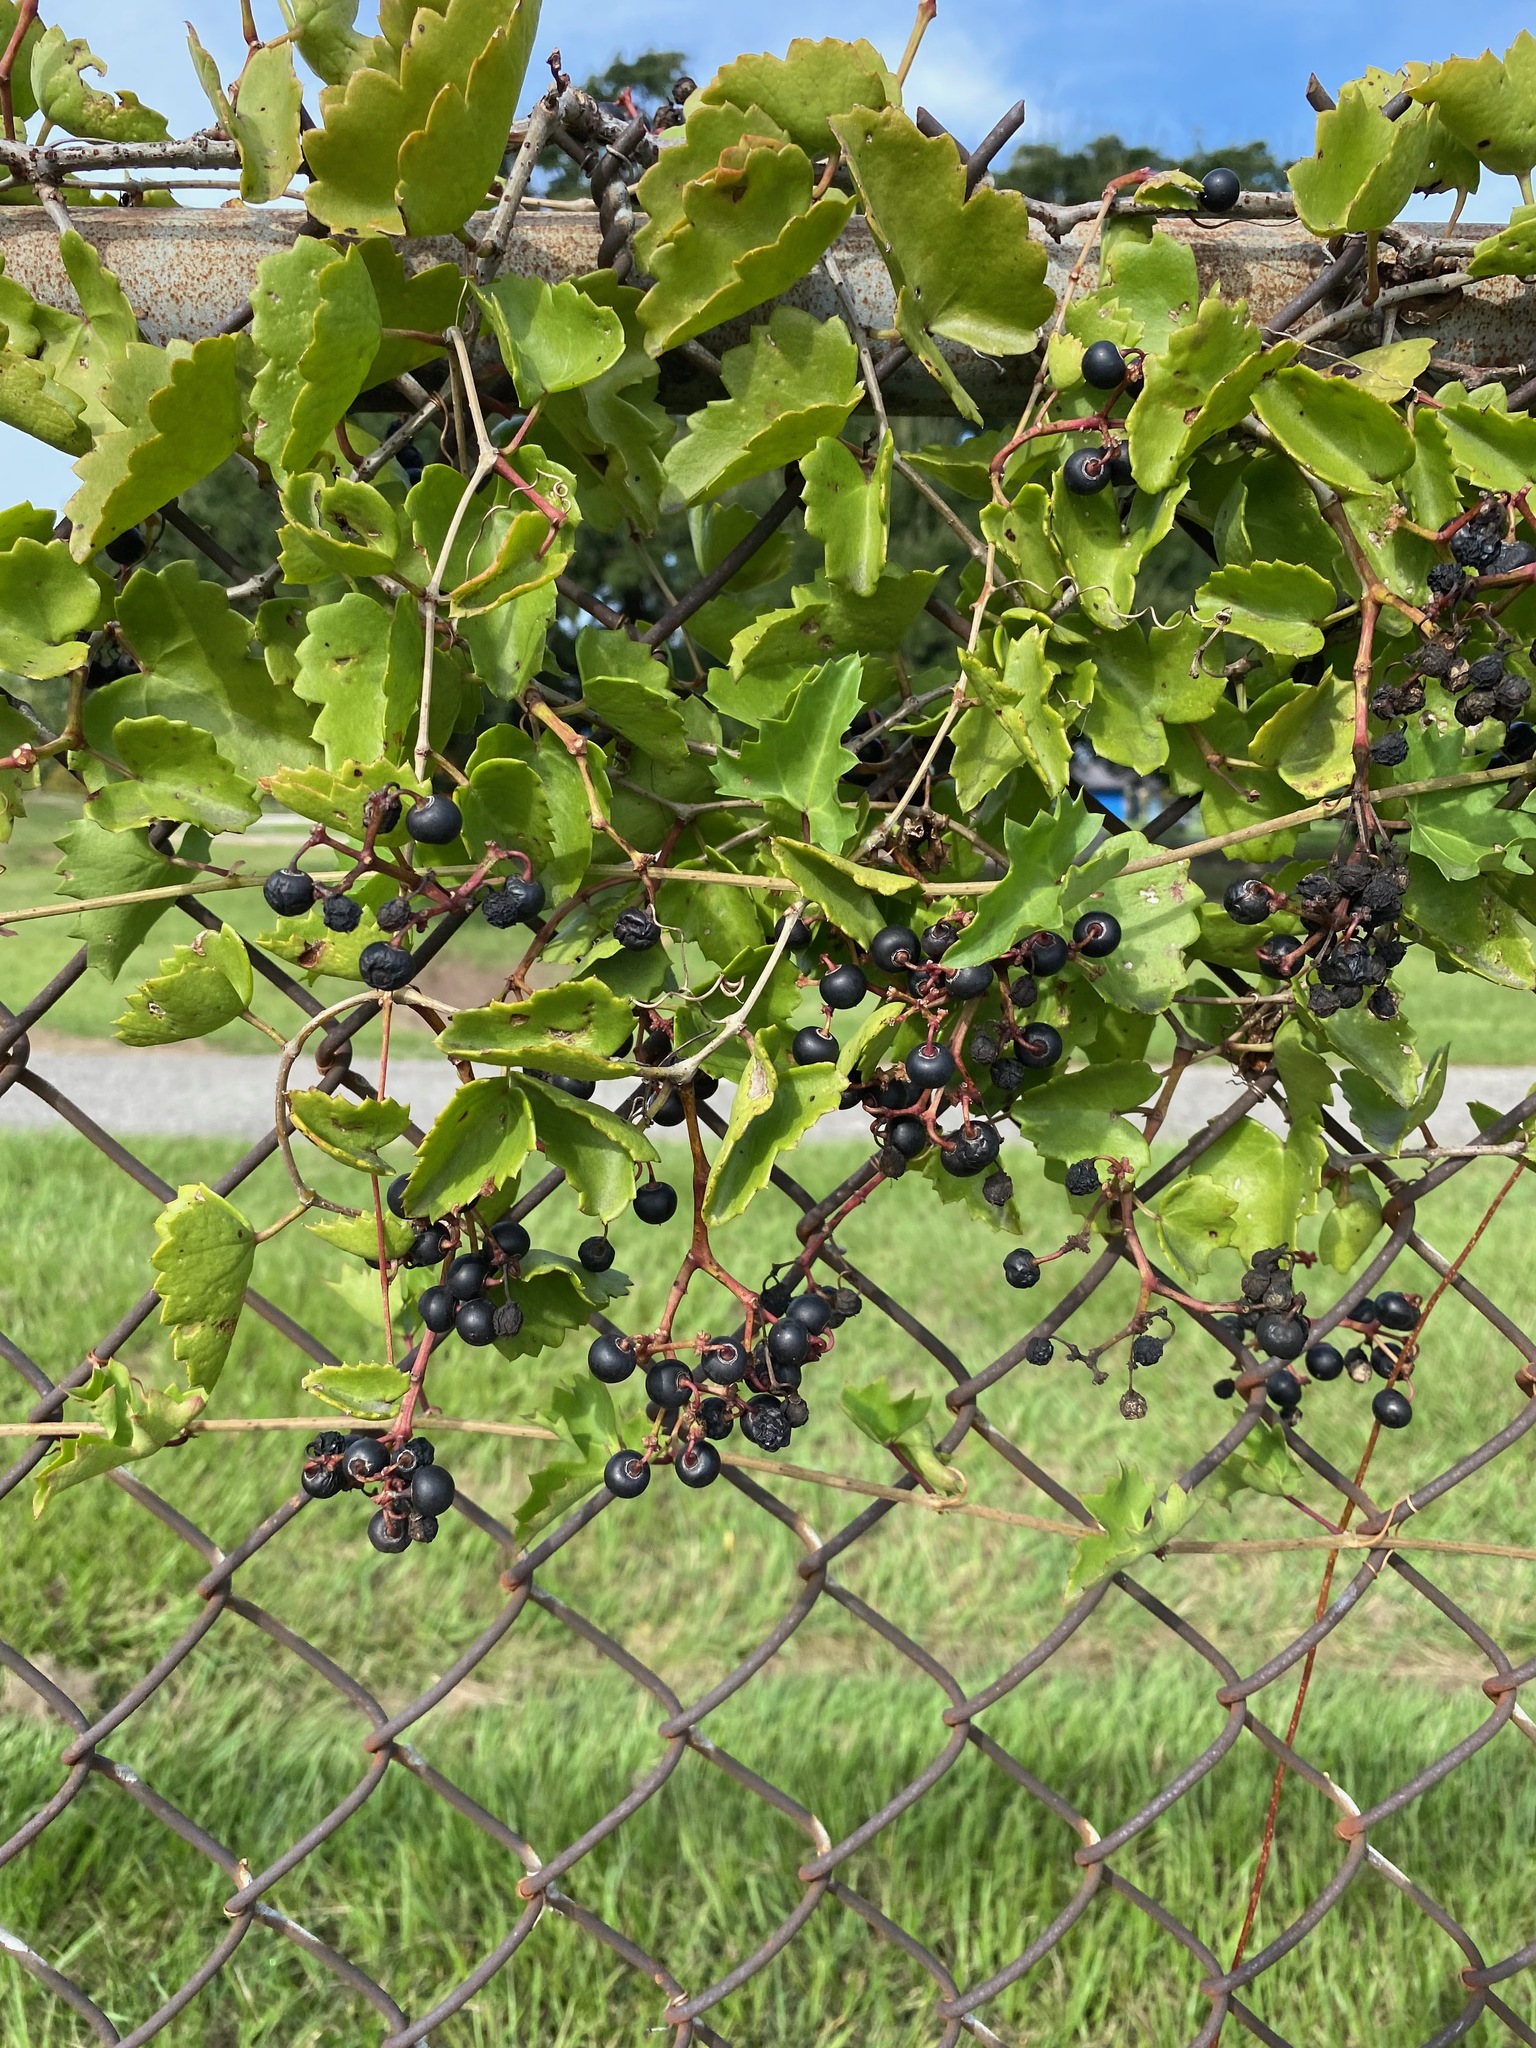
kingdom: Plantae
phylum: Tracheophyta
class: Magnoliopsida
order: Vitales
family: Vitaceae
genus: Cissus
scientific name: Cissus trifoliata
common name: Vine-sorrel
